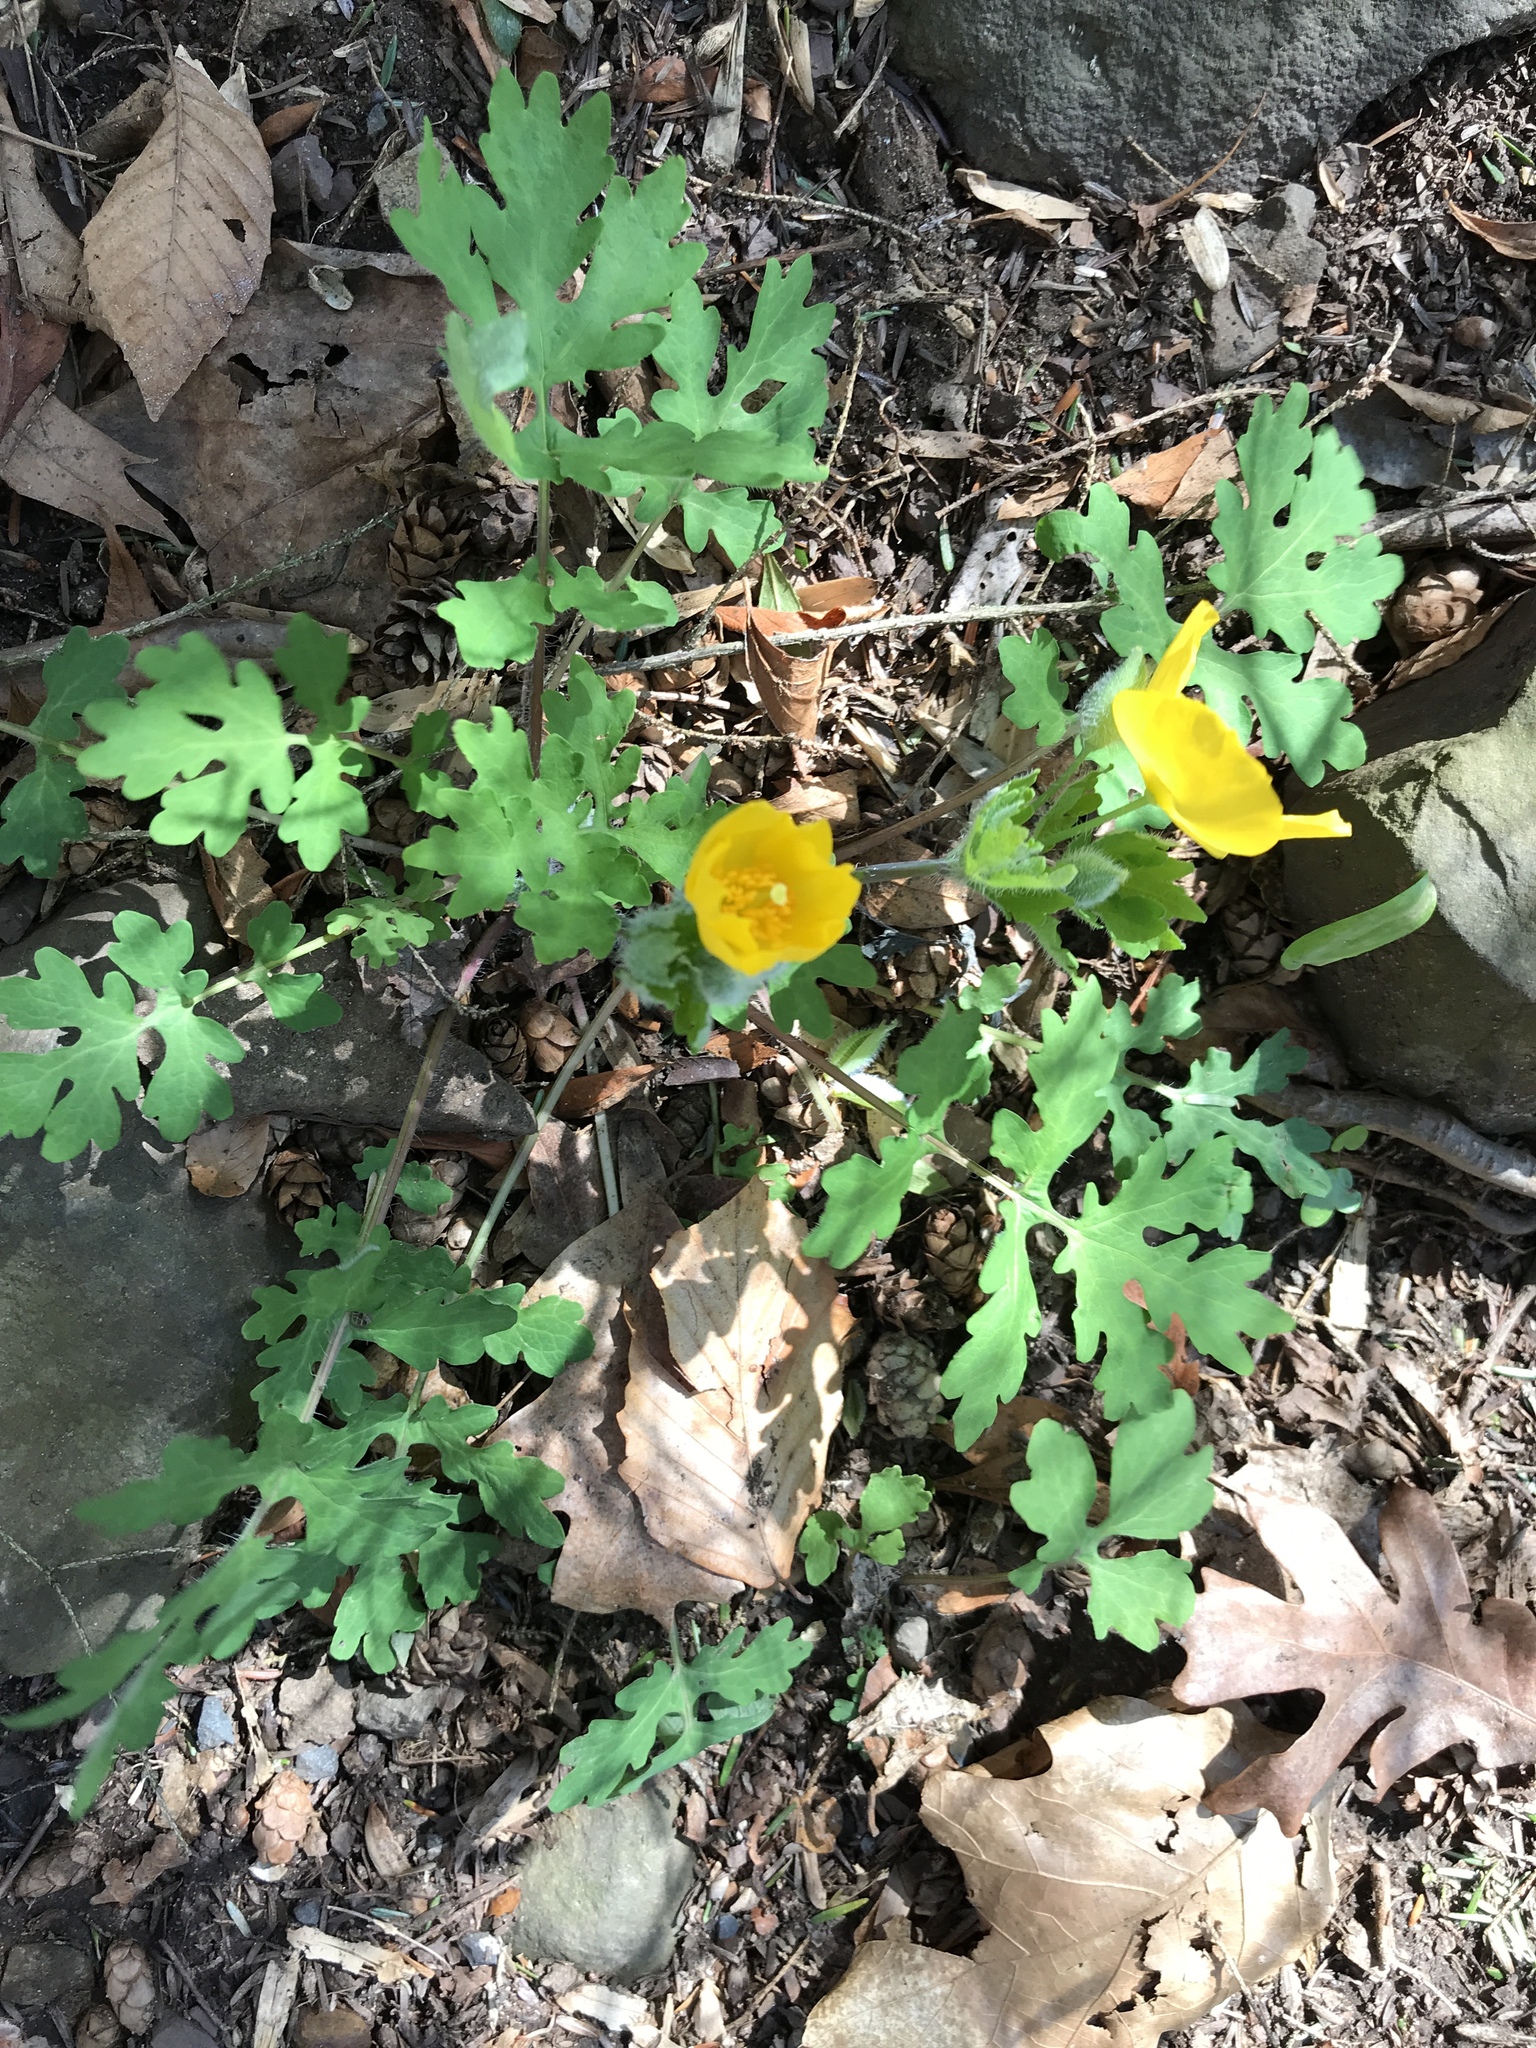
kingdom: Plantae
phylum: Tracheophyta
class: Magnoliopsida
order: Ranunculales
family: Papaveraceae
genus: Stylophorum
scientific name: Stylophorum diphyllum
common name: Celandine poppy
